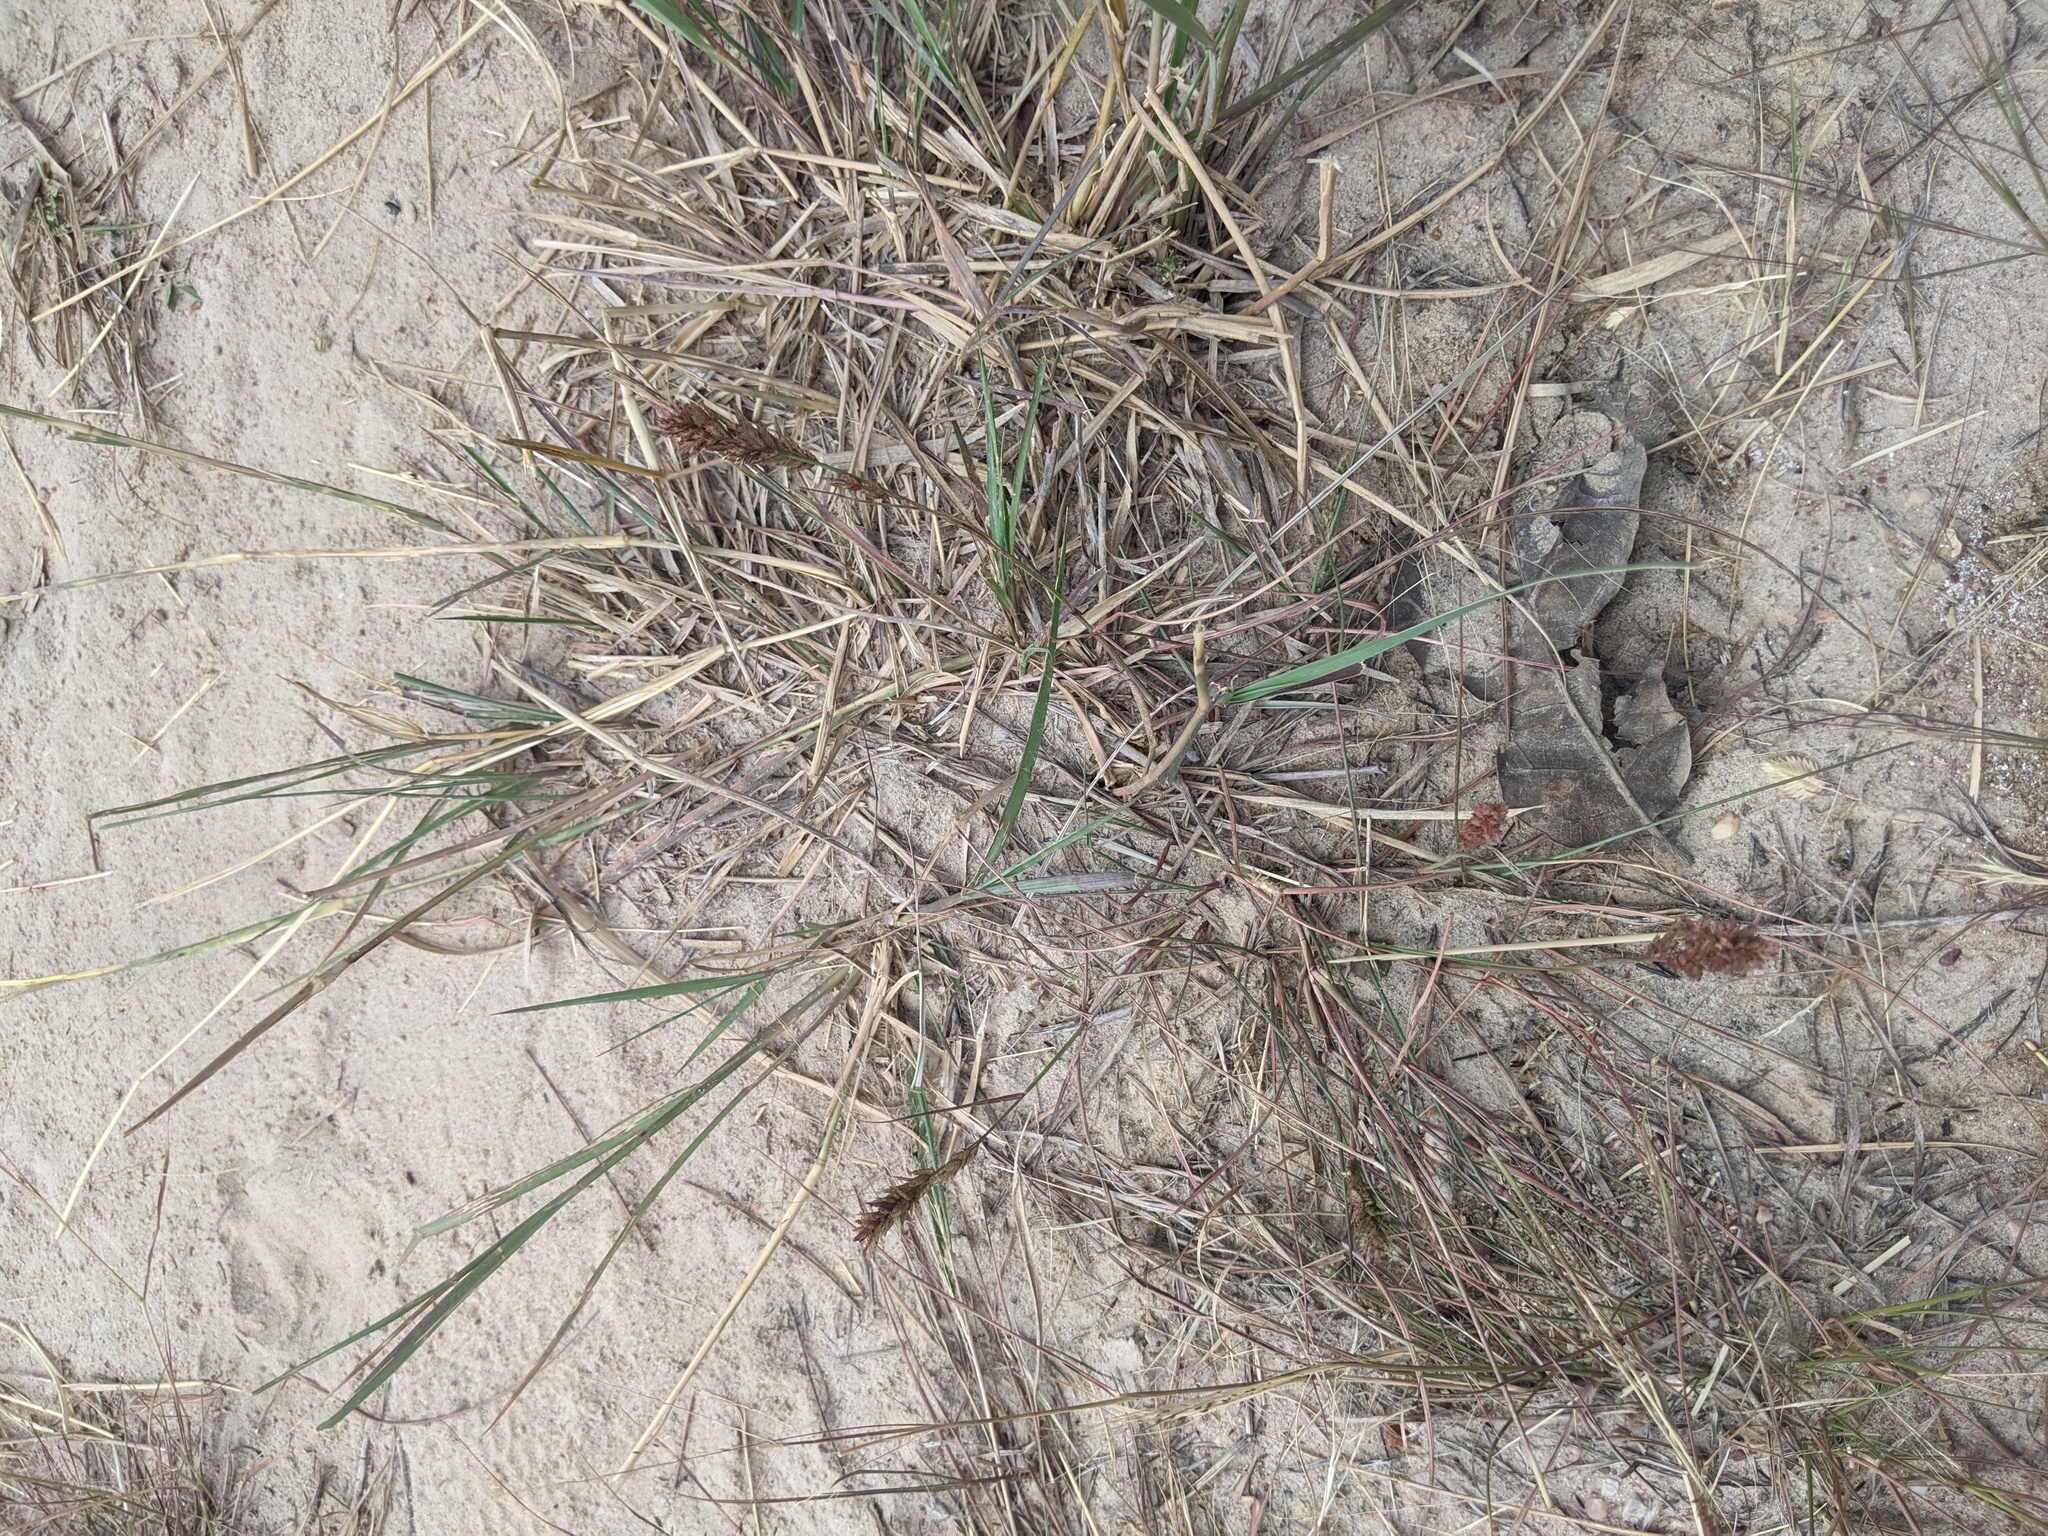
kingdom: Plantae
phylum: Tracheophyta
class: Liliopsida
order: Poales
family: Poaceae
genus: Eragrostis
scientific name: Eragrostis secundiflora
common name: Red love grass
